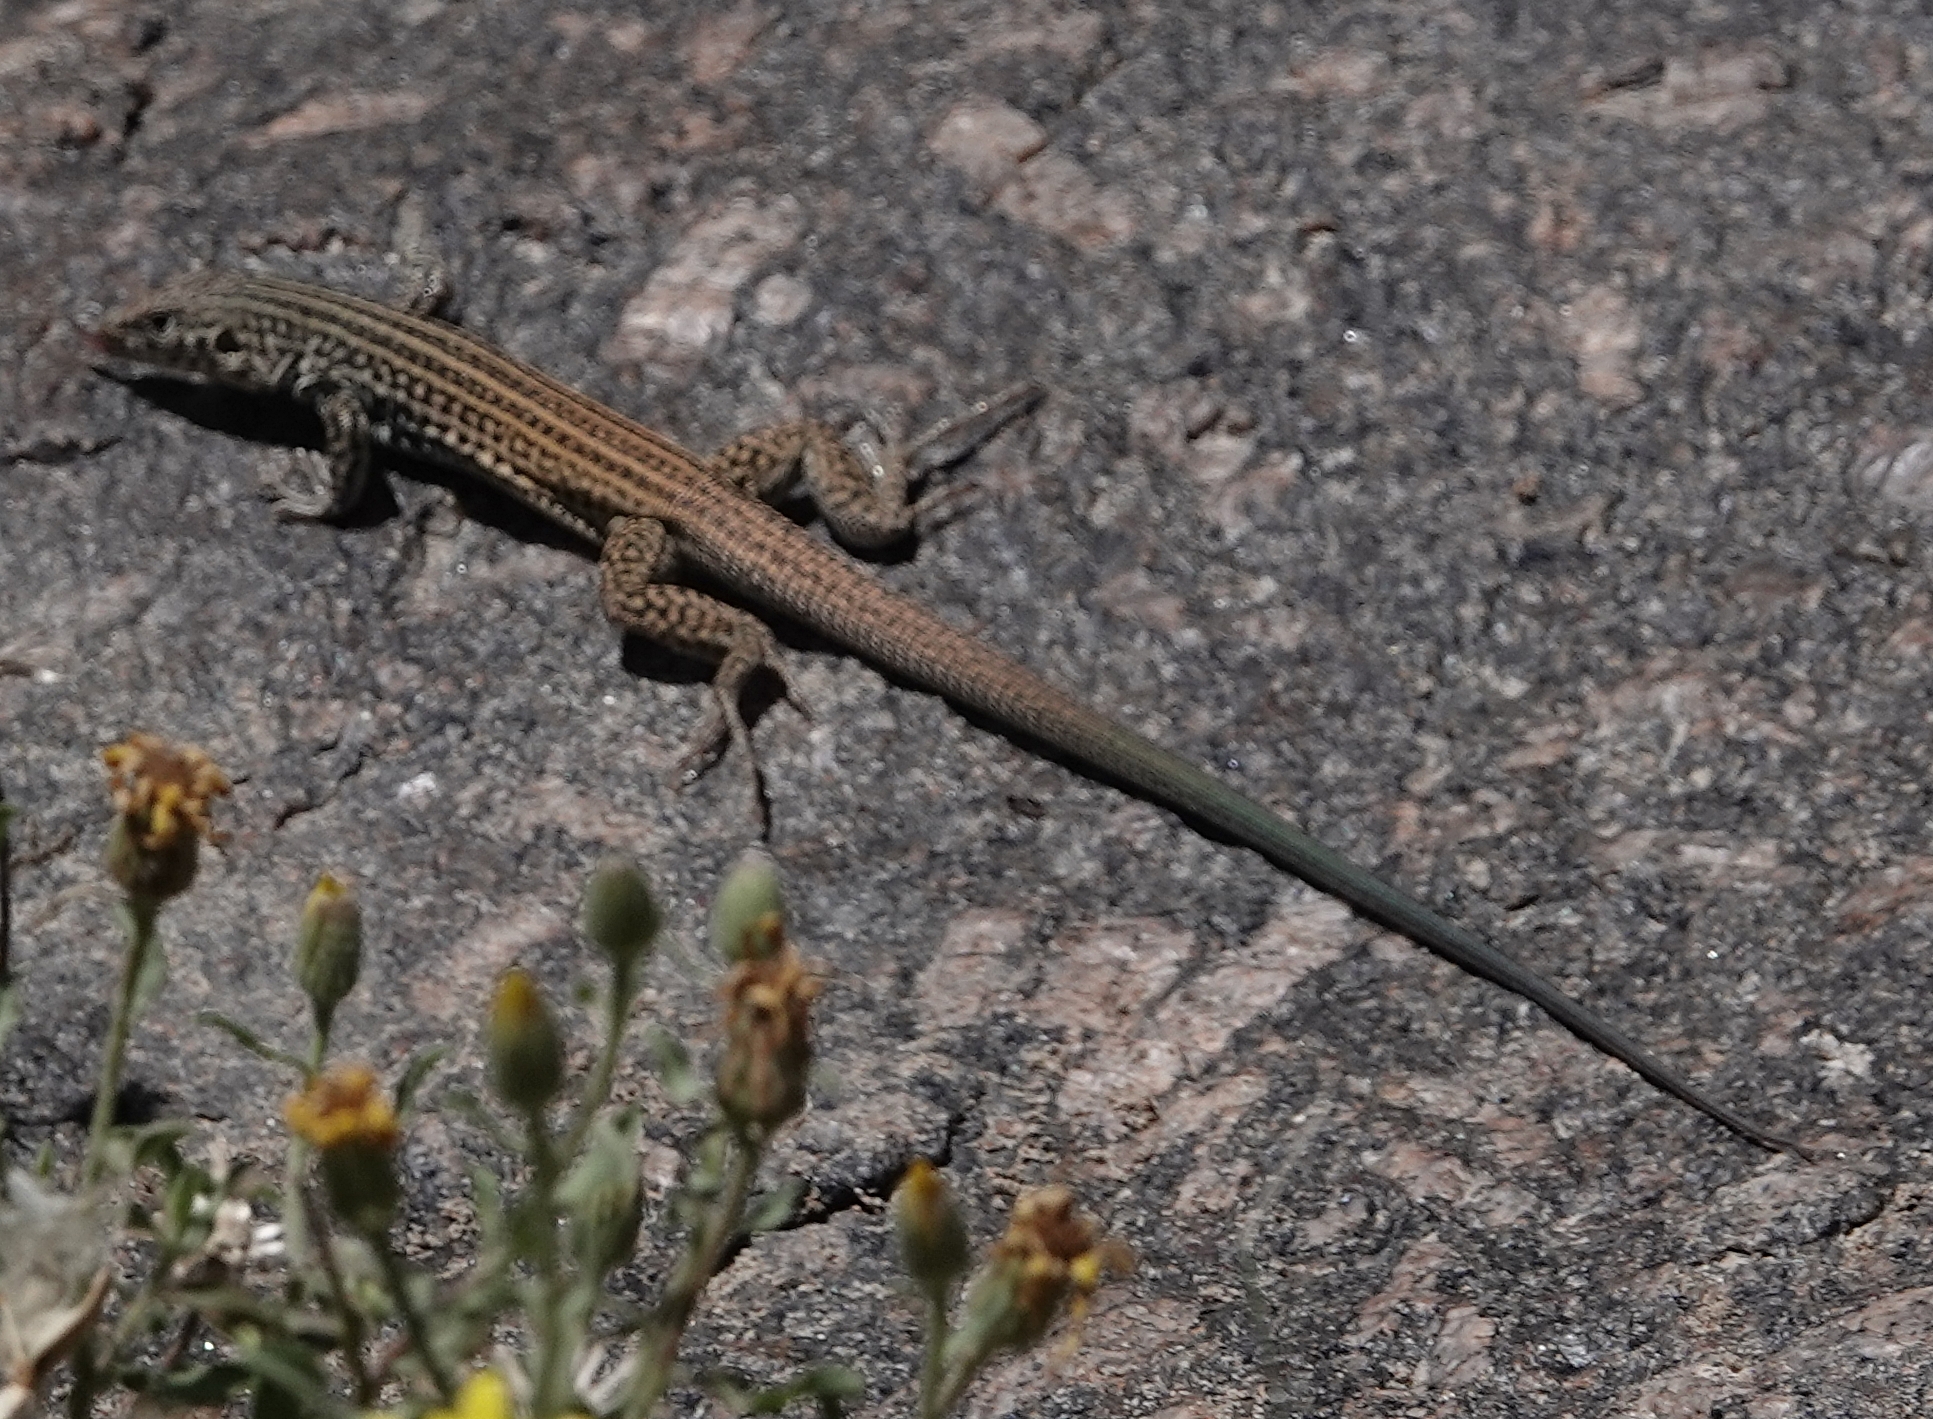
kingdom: Animalia
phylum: Chordata
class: Squamata
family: Teiidae
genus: Aspidoscelis
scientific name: Aspidoscelis tigris
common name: Tiger whiptail
